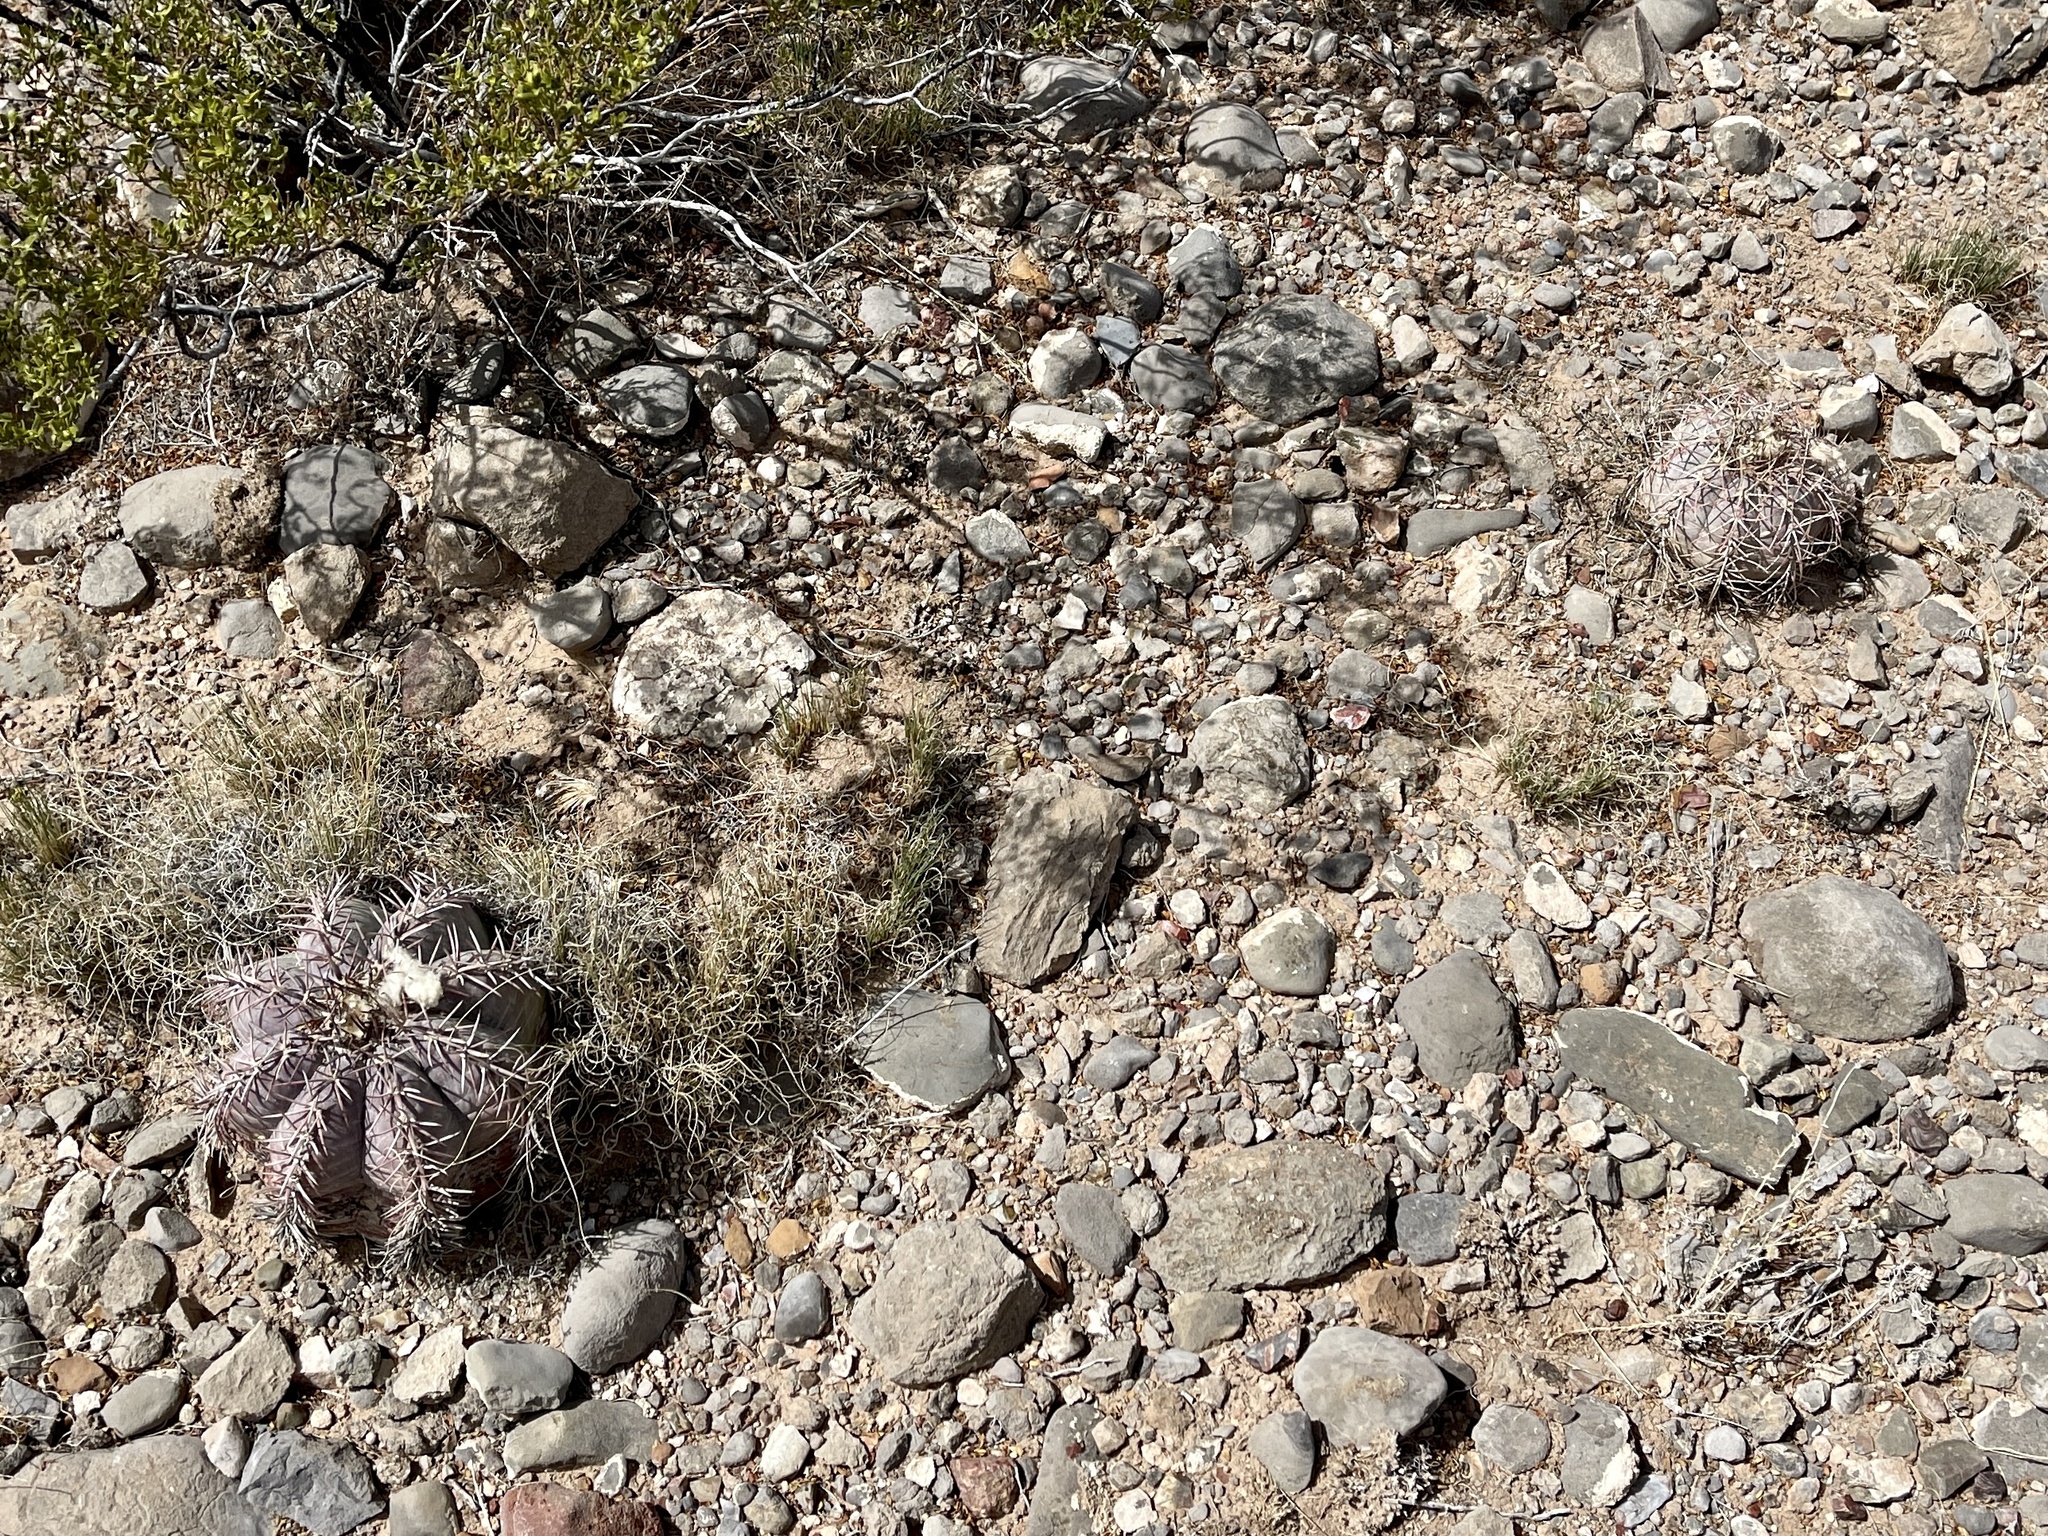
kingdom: Plantae
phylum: Tracheophyta
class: Magnoliopsida
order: Caryophyllales
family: Cactaceae
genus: Echinocactus
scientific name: Echinocactus horizonthalonius
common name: Devilshead
